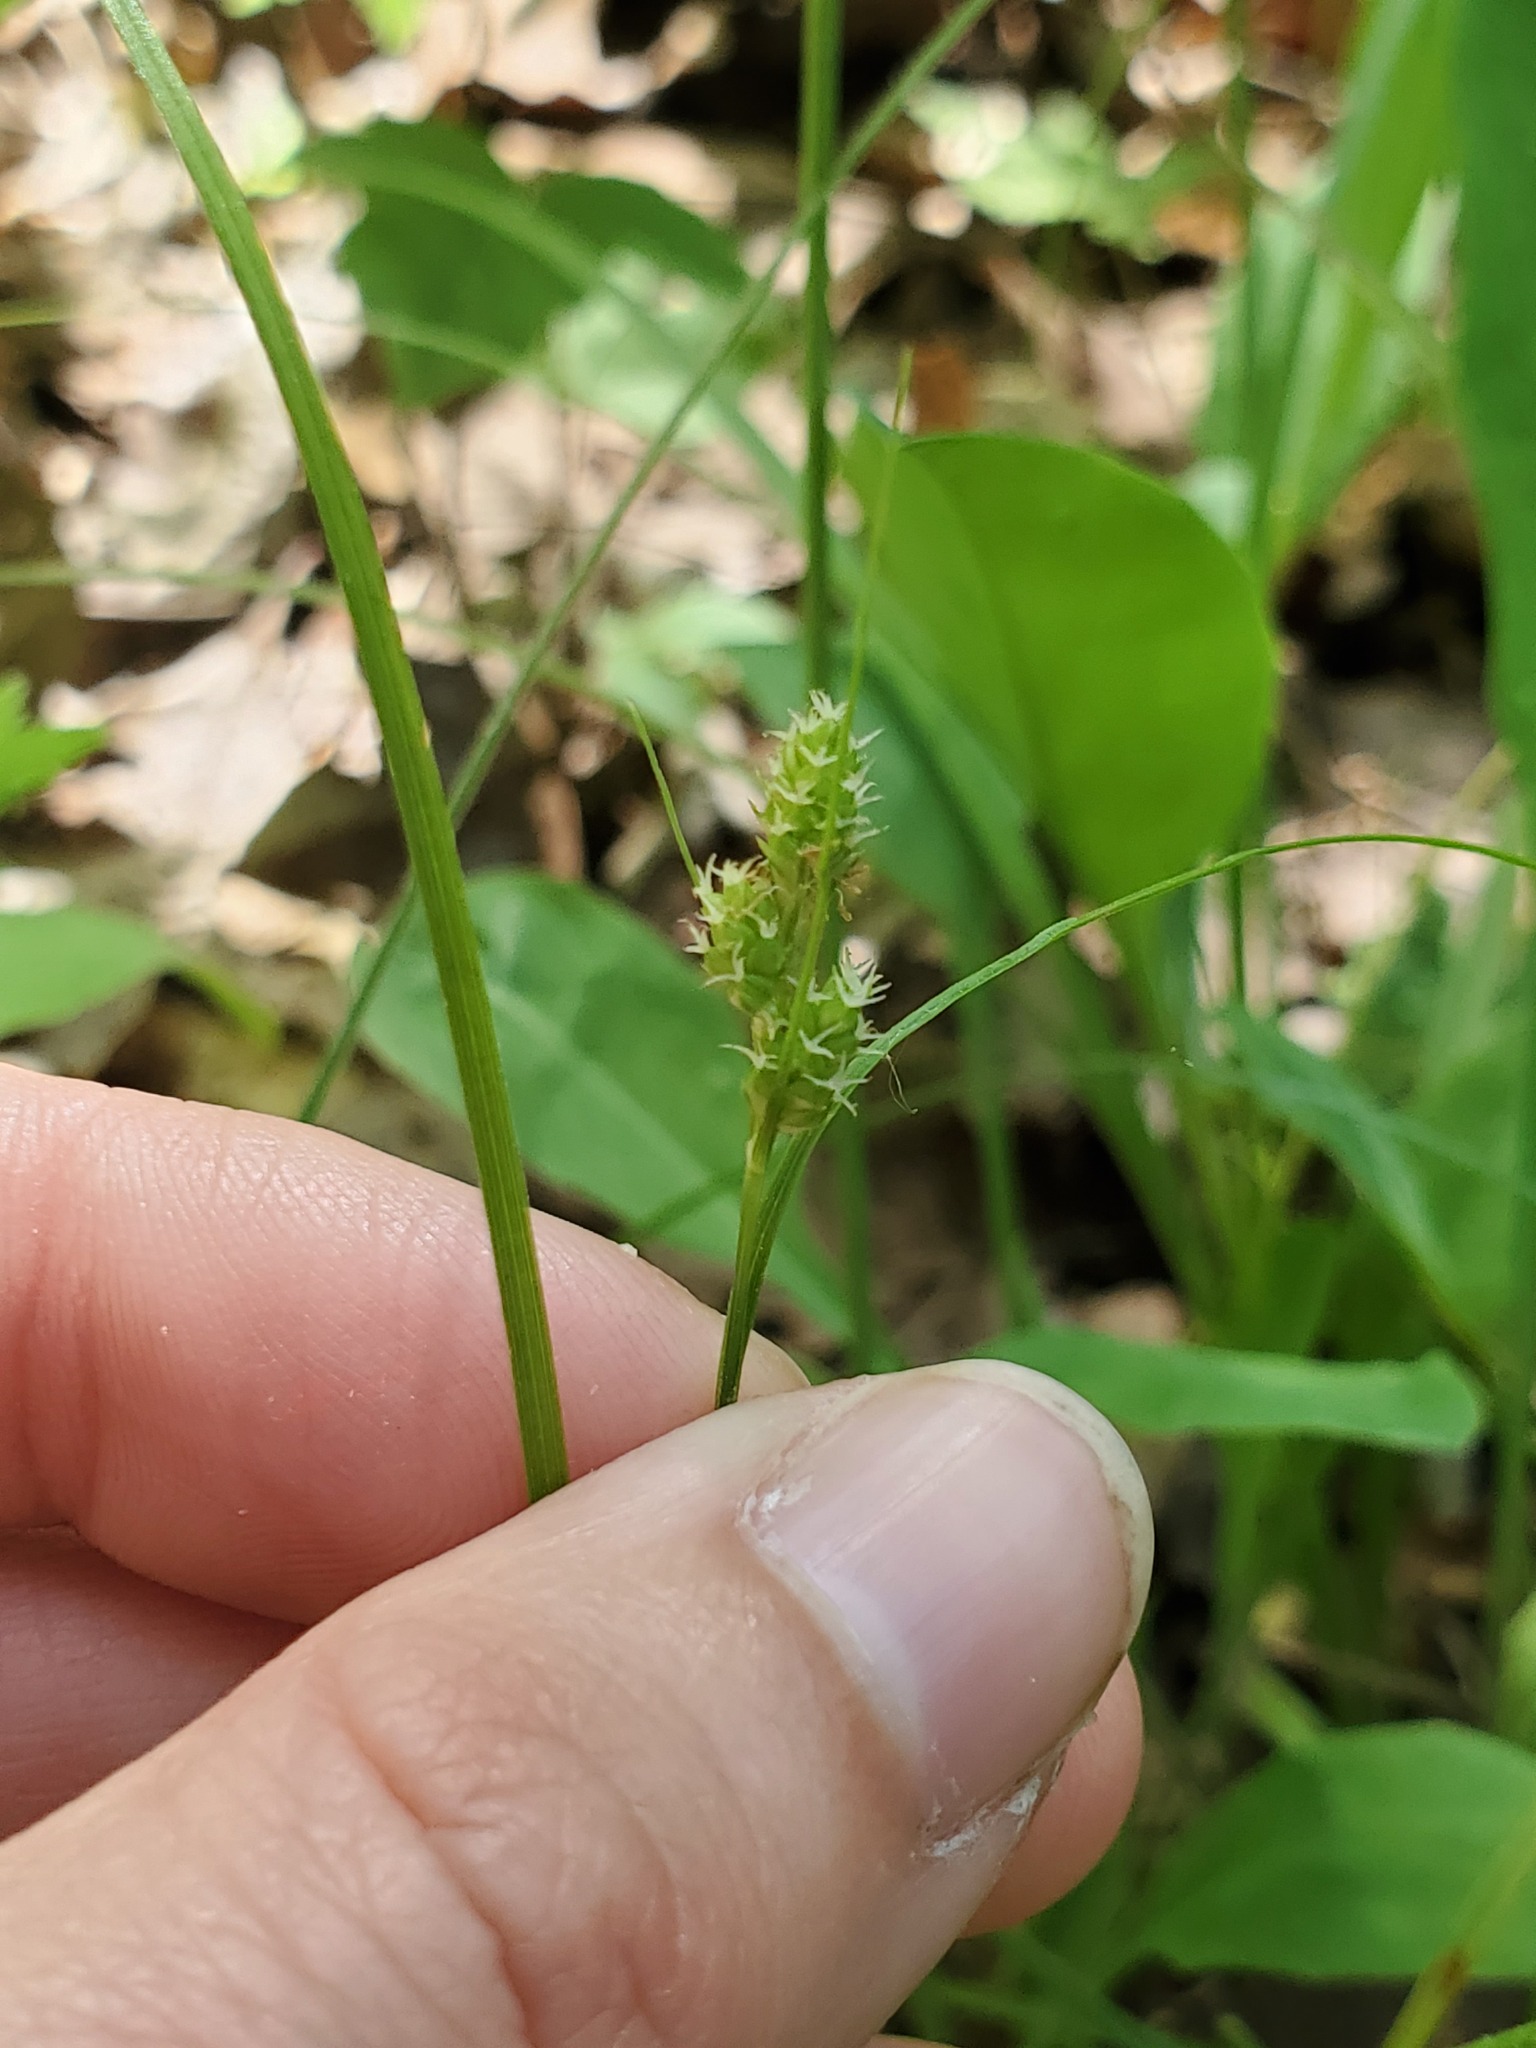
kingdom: Plantae
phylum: Tracheophyta
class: Liliopsida
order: Poales
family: Cyperaceae
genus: Carex
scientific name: Carex hirsutella
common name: Fuzzy wuzzy sedge
